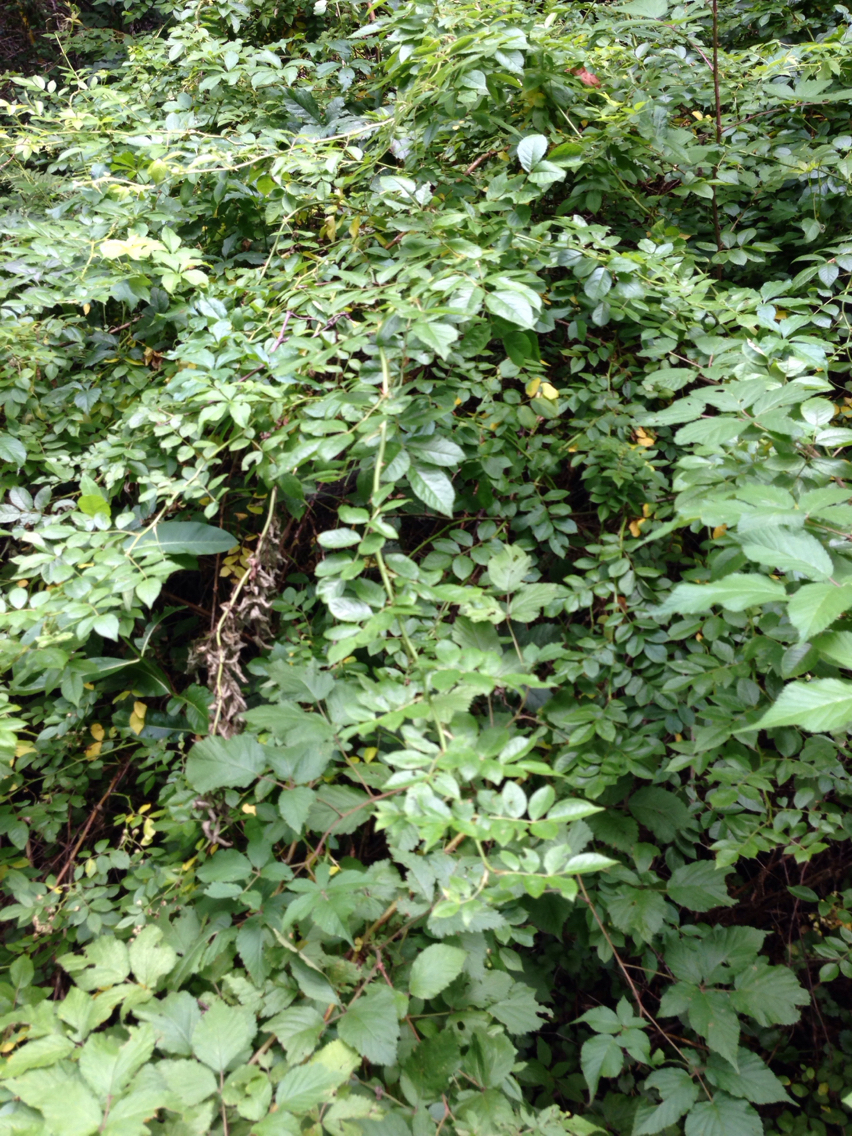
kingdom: Plantae
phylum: Tracheophyta
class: Magnoliopsida
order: Rosales
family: Rosaceae
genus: Rosa
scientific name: Rosa multiflora
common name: Multiflora rose
